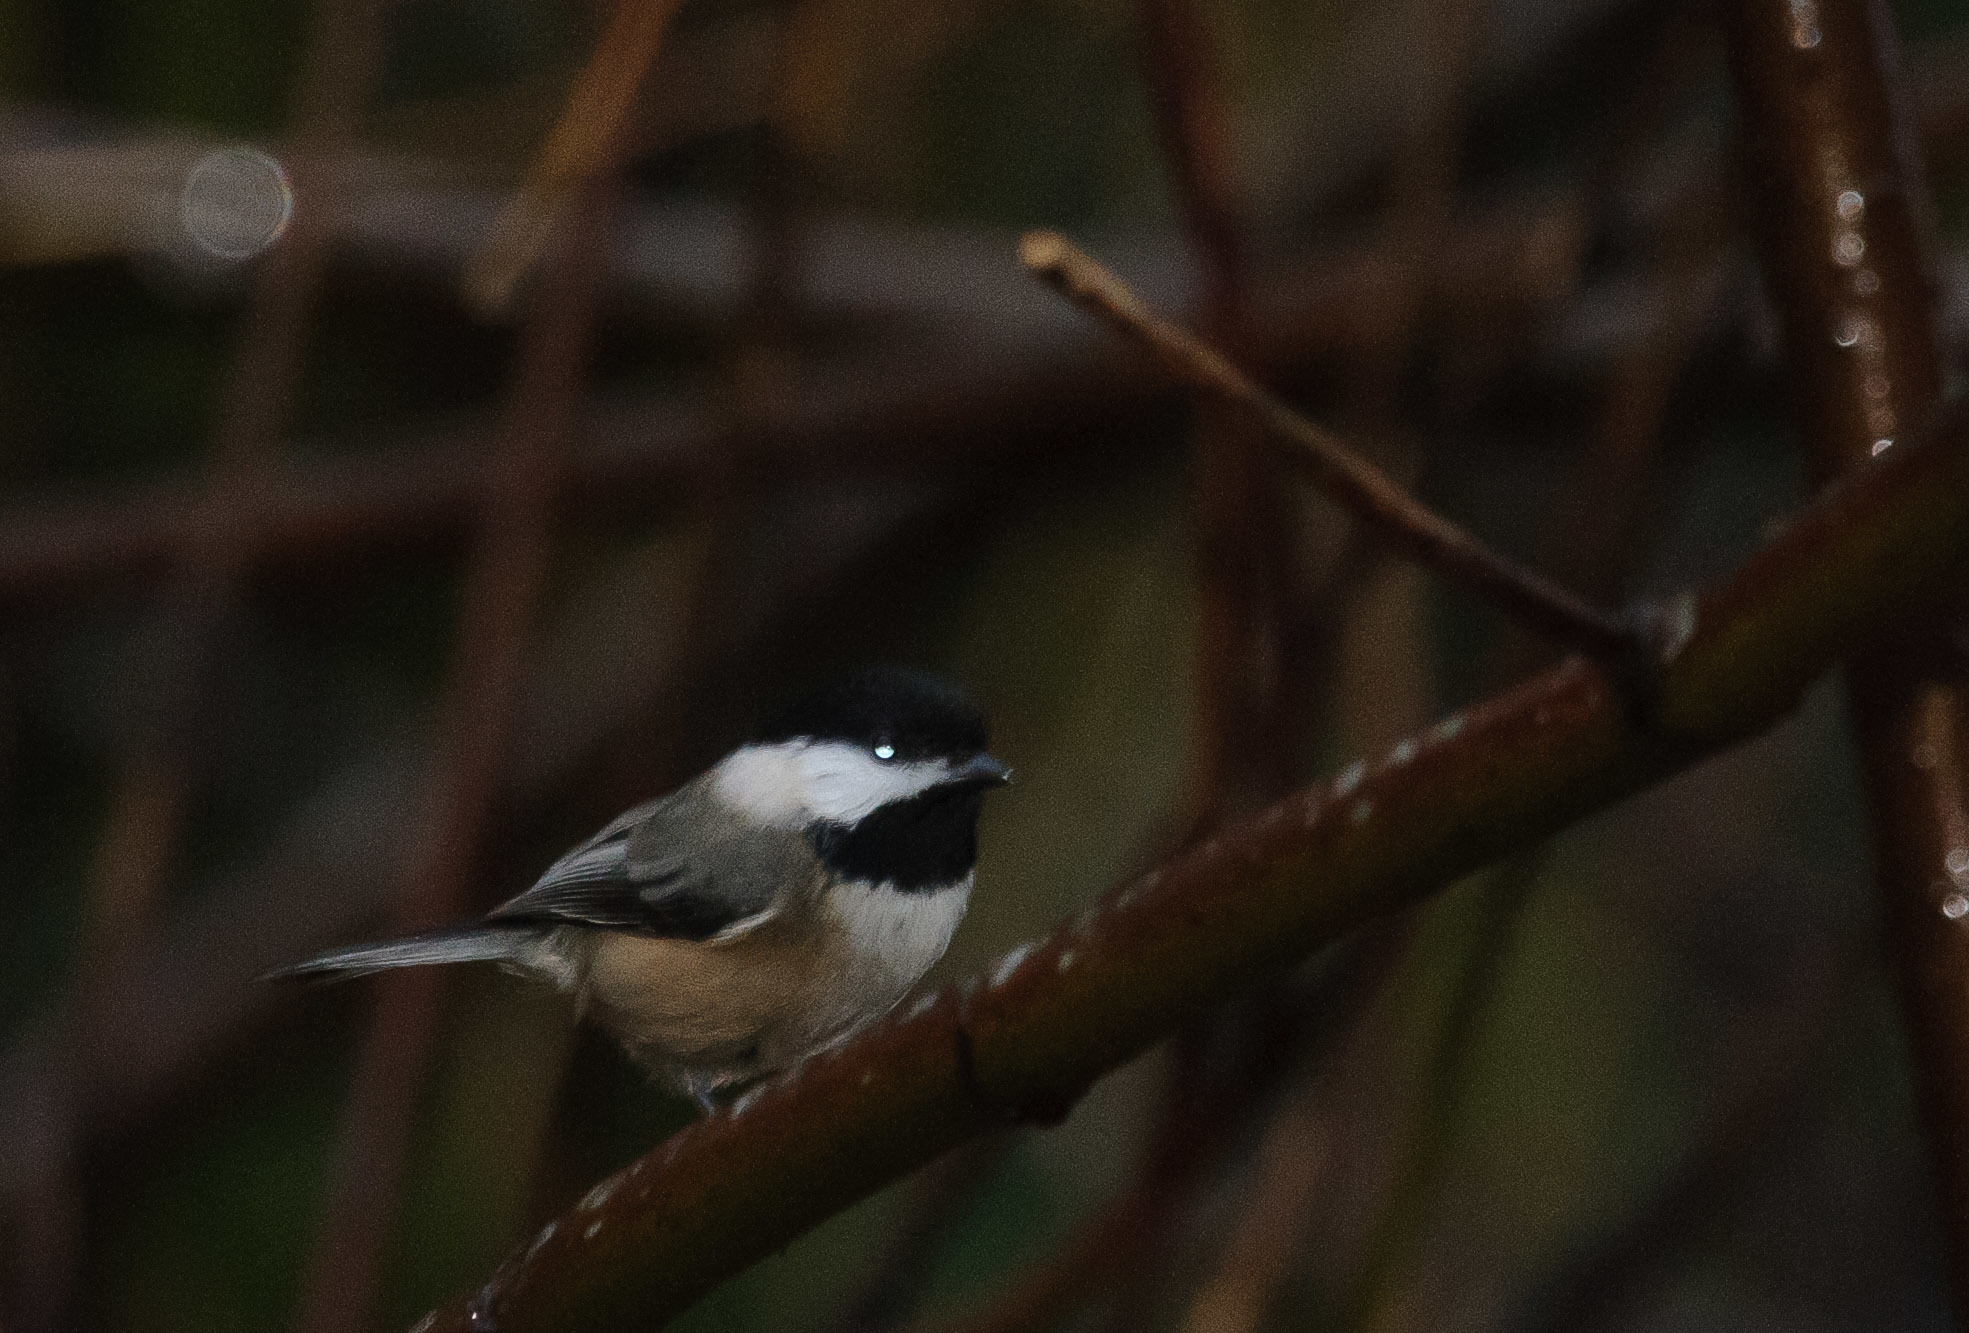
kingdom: Animalia
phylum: Chordata
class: Aves
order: Passeriformes
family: Paridae
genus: Poecile
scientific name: Poecile atricapillus
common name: Black-capped chickadee
